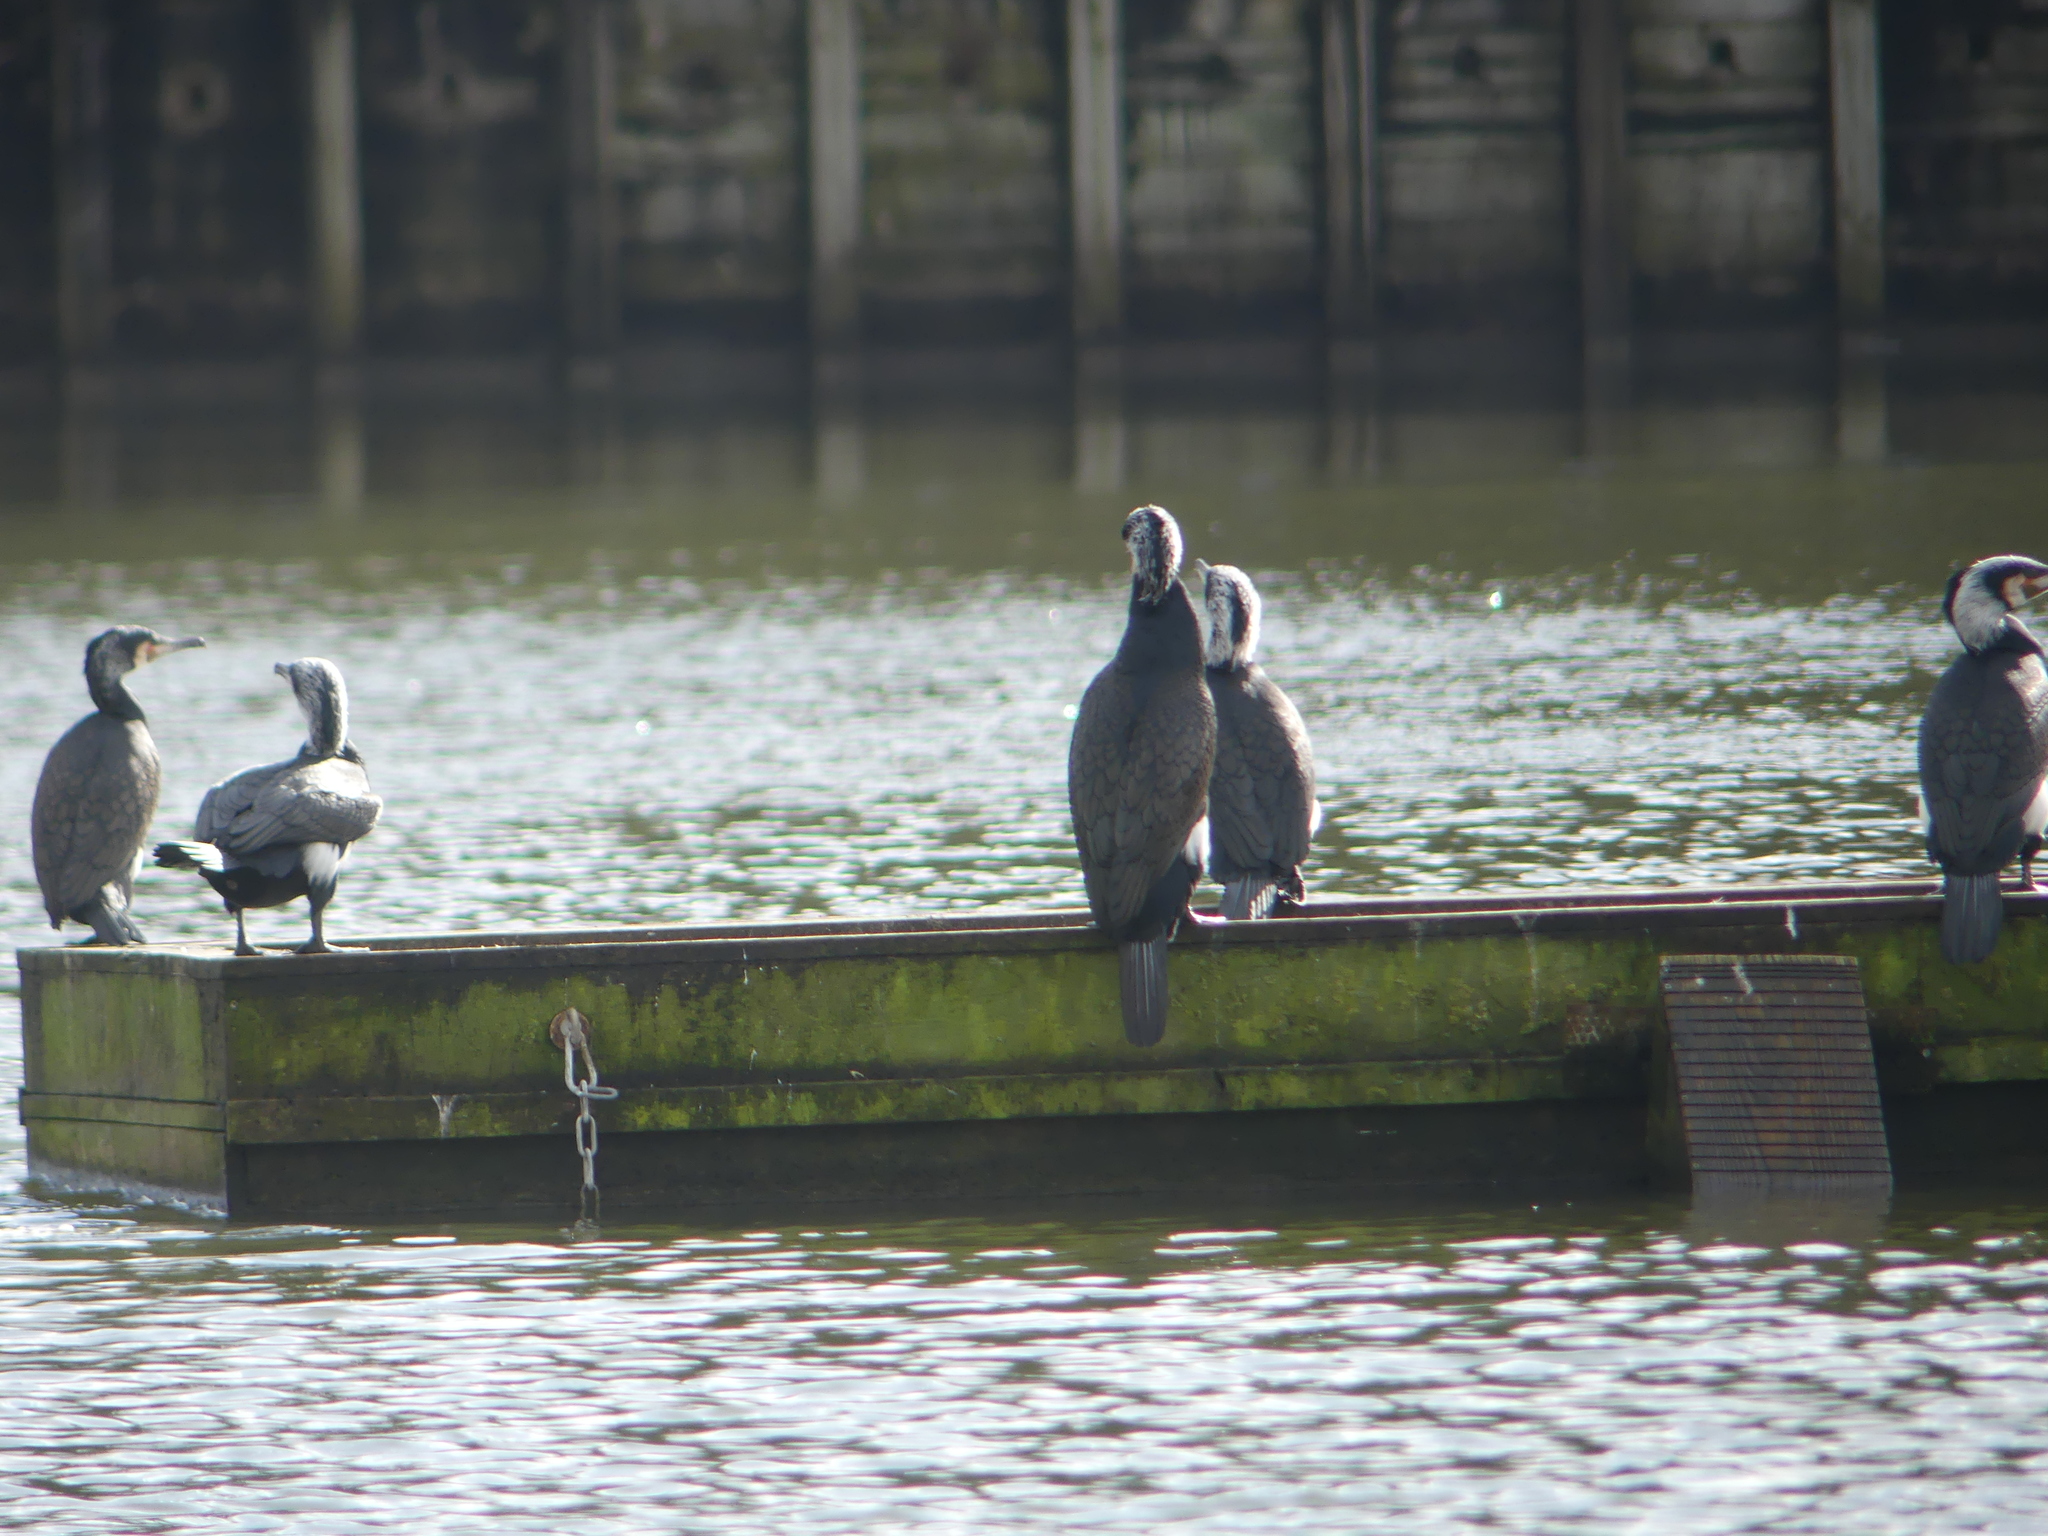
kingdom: Animalia
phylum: Chordata
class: Aves
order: Suliformes
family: Phalacrocoracidae
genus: Phalacrocorax
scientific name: Phalacrocorax carbo
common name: Great cormorant
